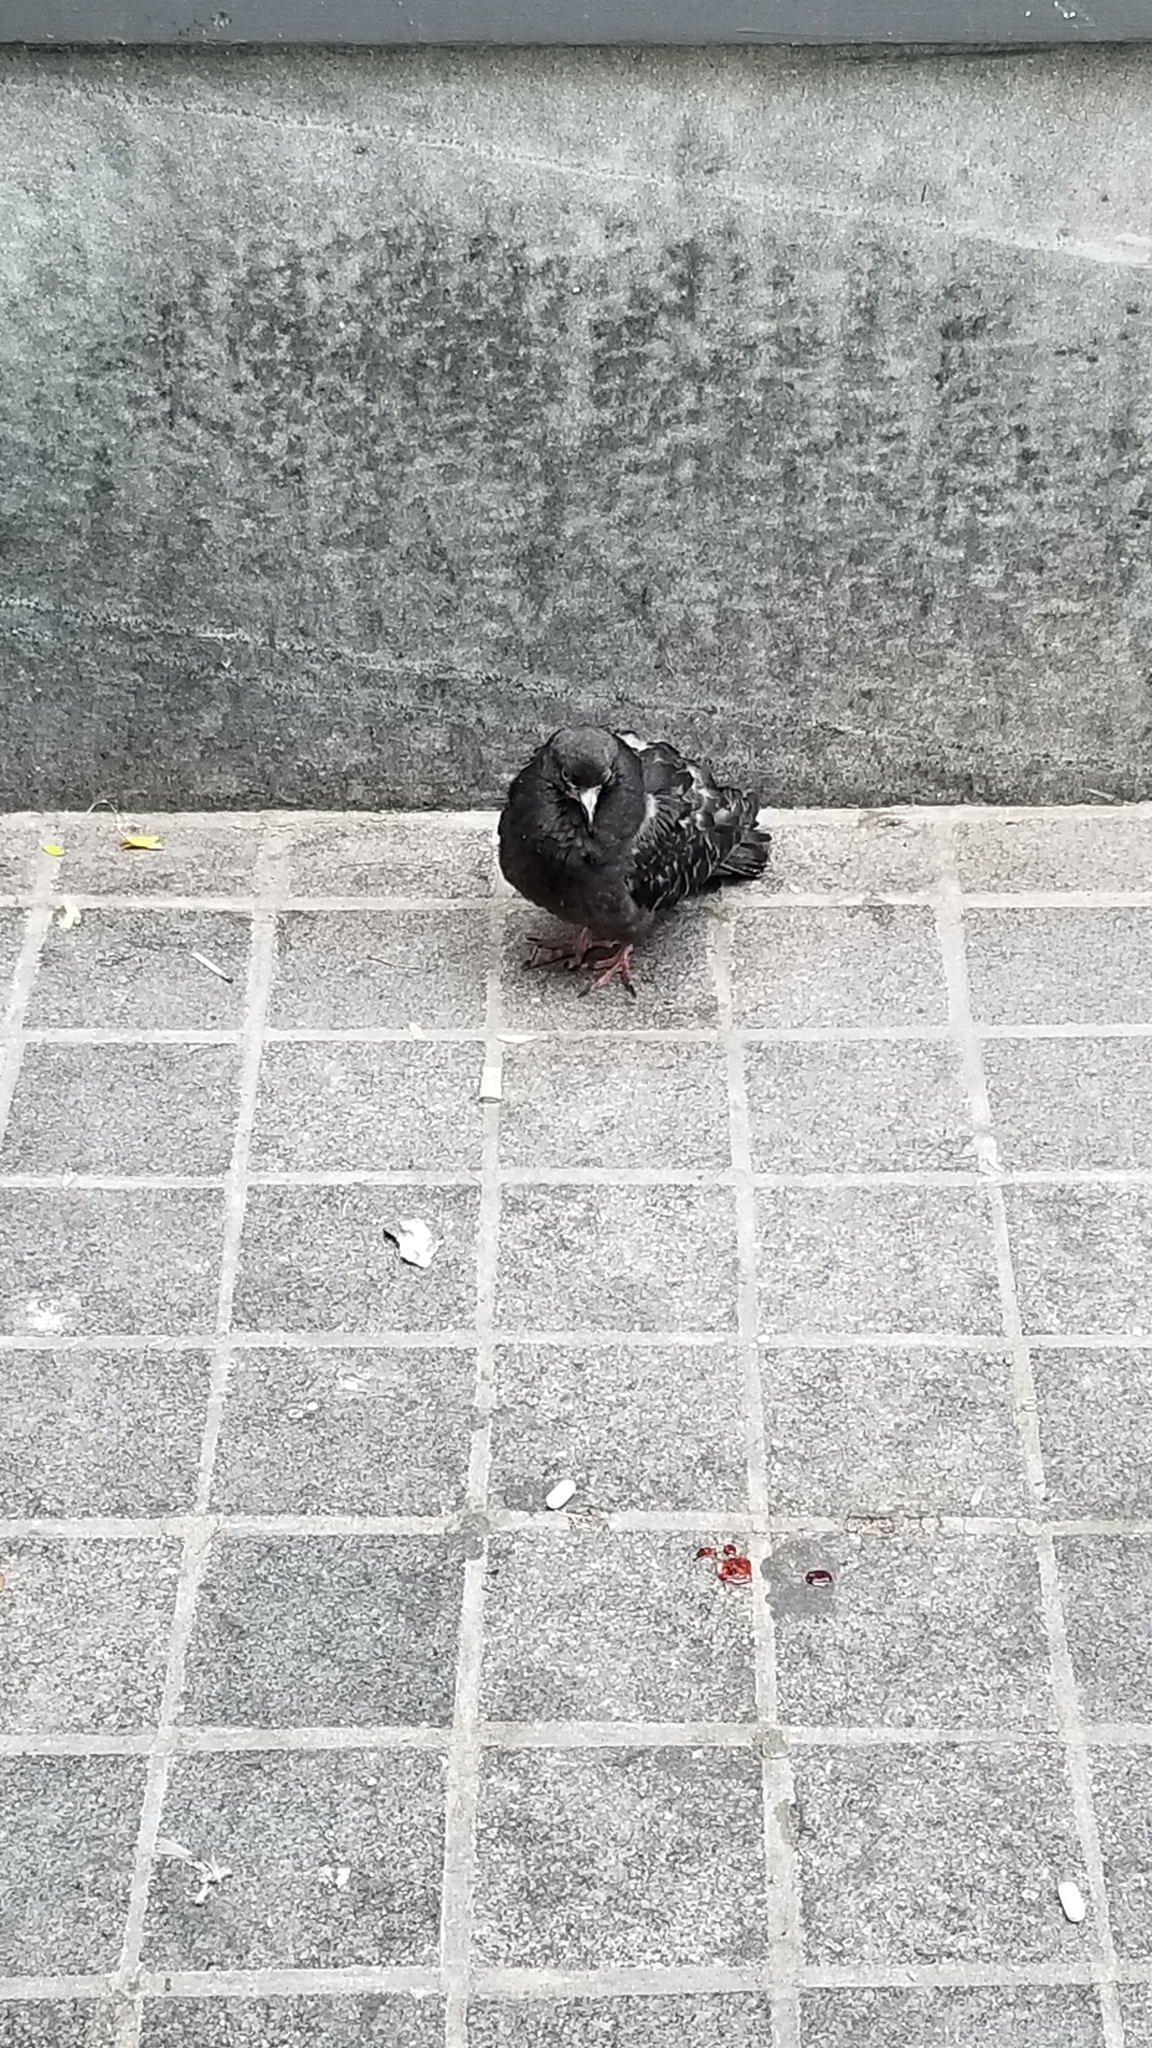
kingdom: Animalia
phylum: Chordata
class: Aves
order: Columbiformes
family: Columbidae
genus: Columba
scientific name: Columba livia
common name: Rock pigeon
